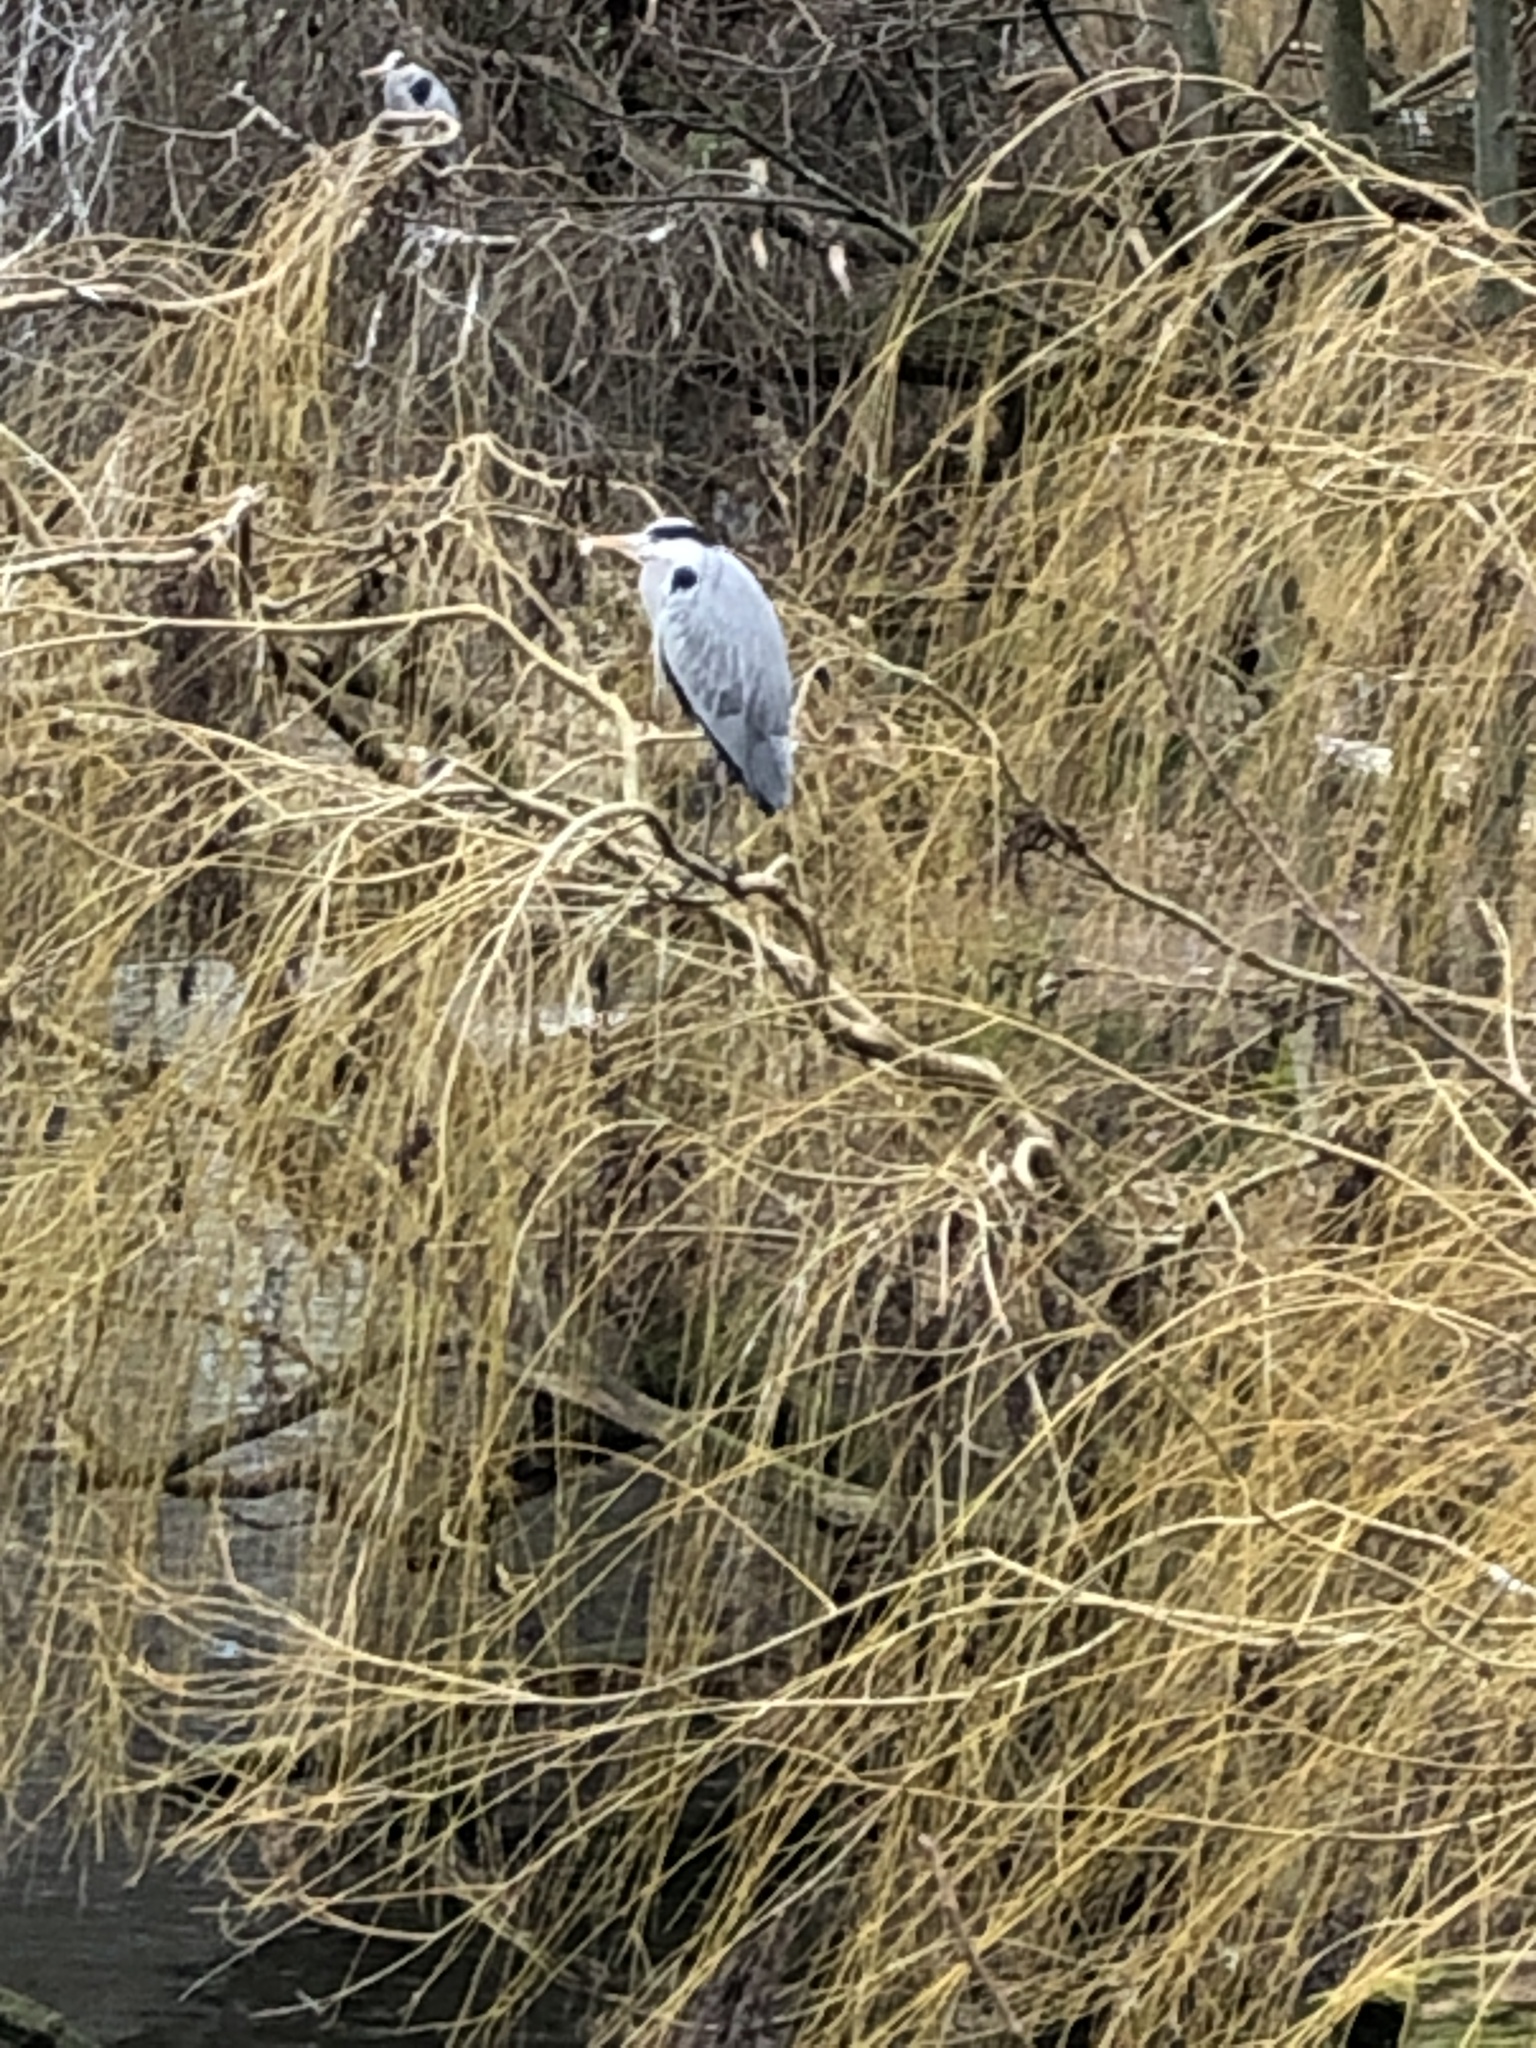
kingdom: Animalia
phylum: Chordata
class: Aves
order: Pelecaniformes
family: Ardeidae
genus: Ardea
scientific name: Ardea cinerea
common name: Grey heron
